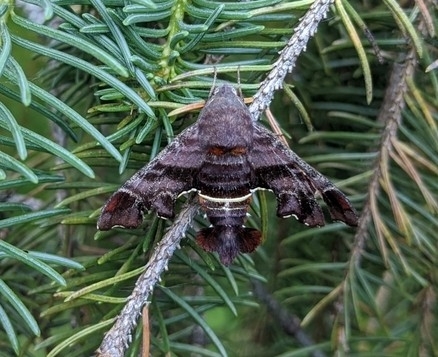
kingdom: Animalia
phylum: Arthropoda
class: Insecta
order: Lepidoptera
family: Sphingidae
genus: Amphion
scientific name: Amphion floridensis
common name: Nessus sphinx
